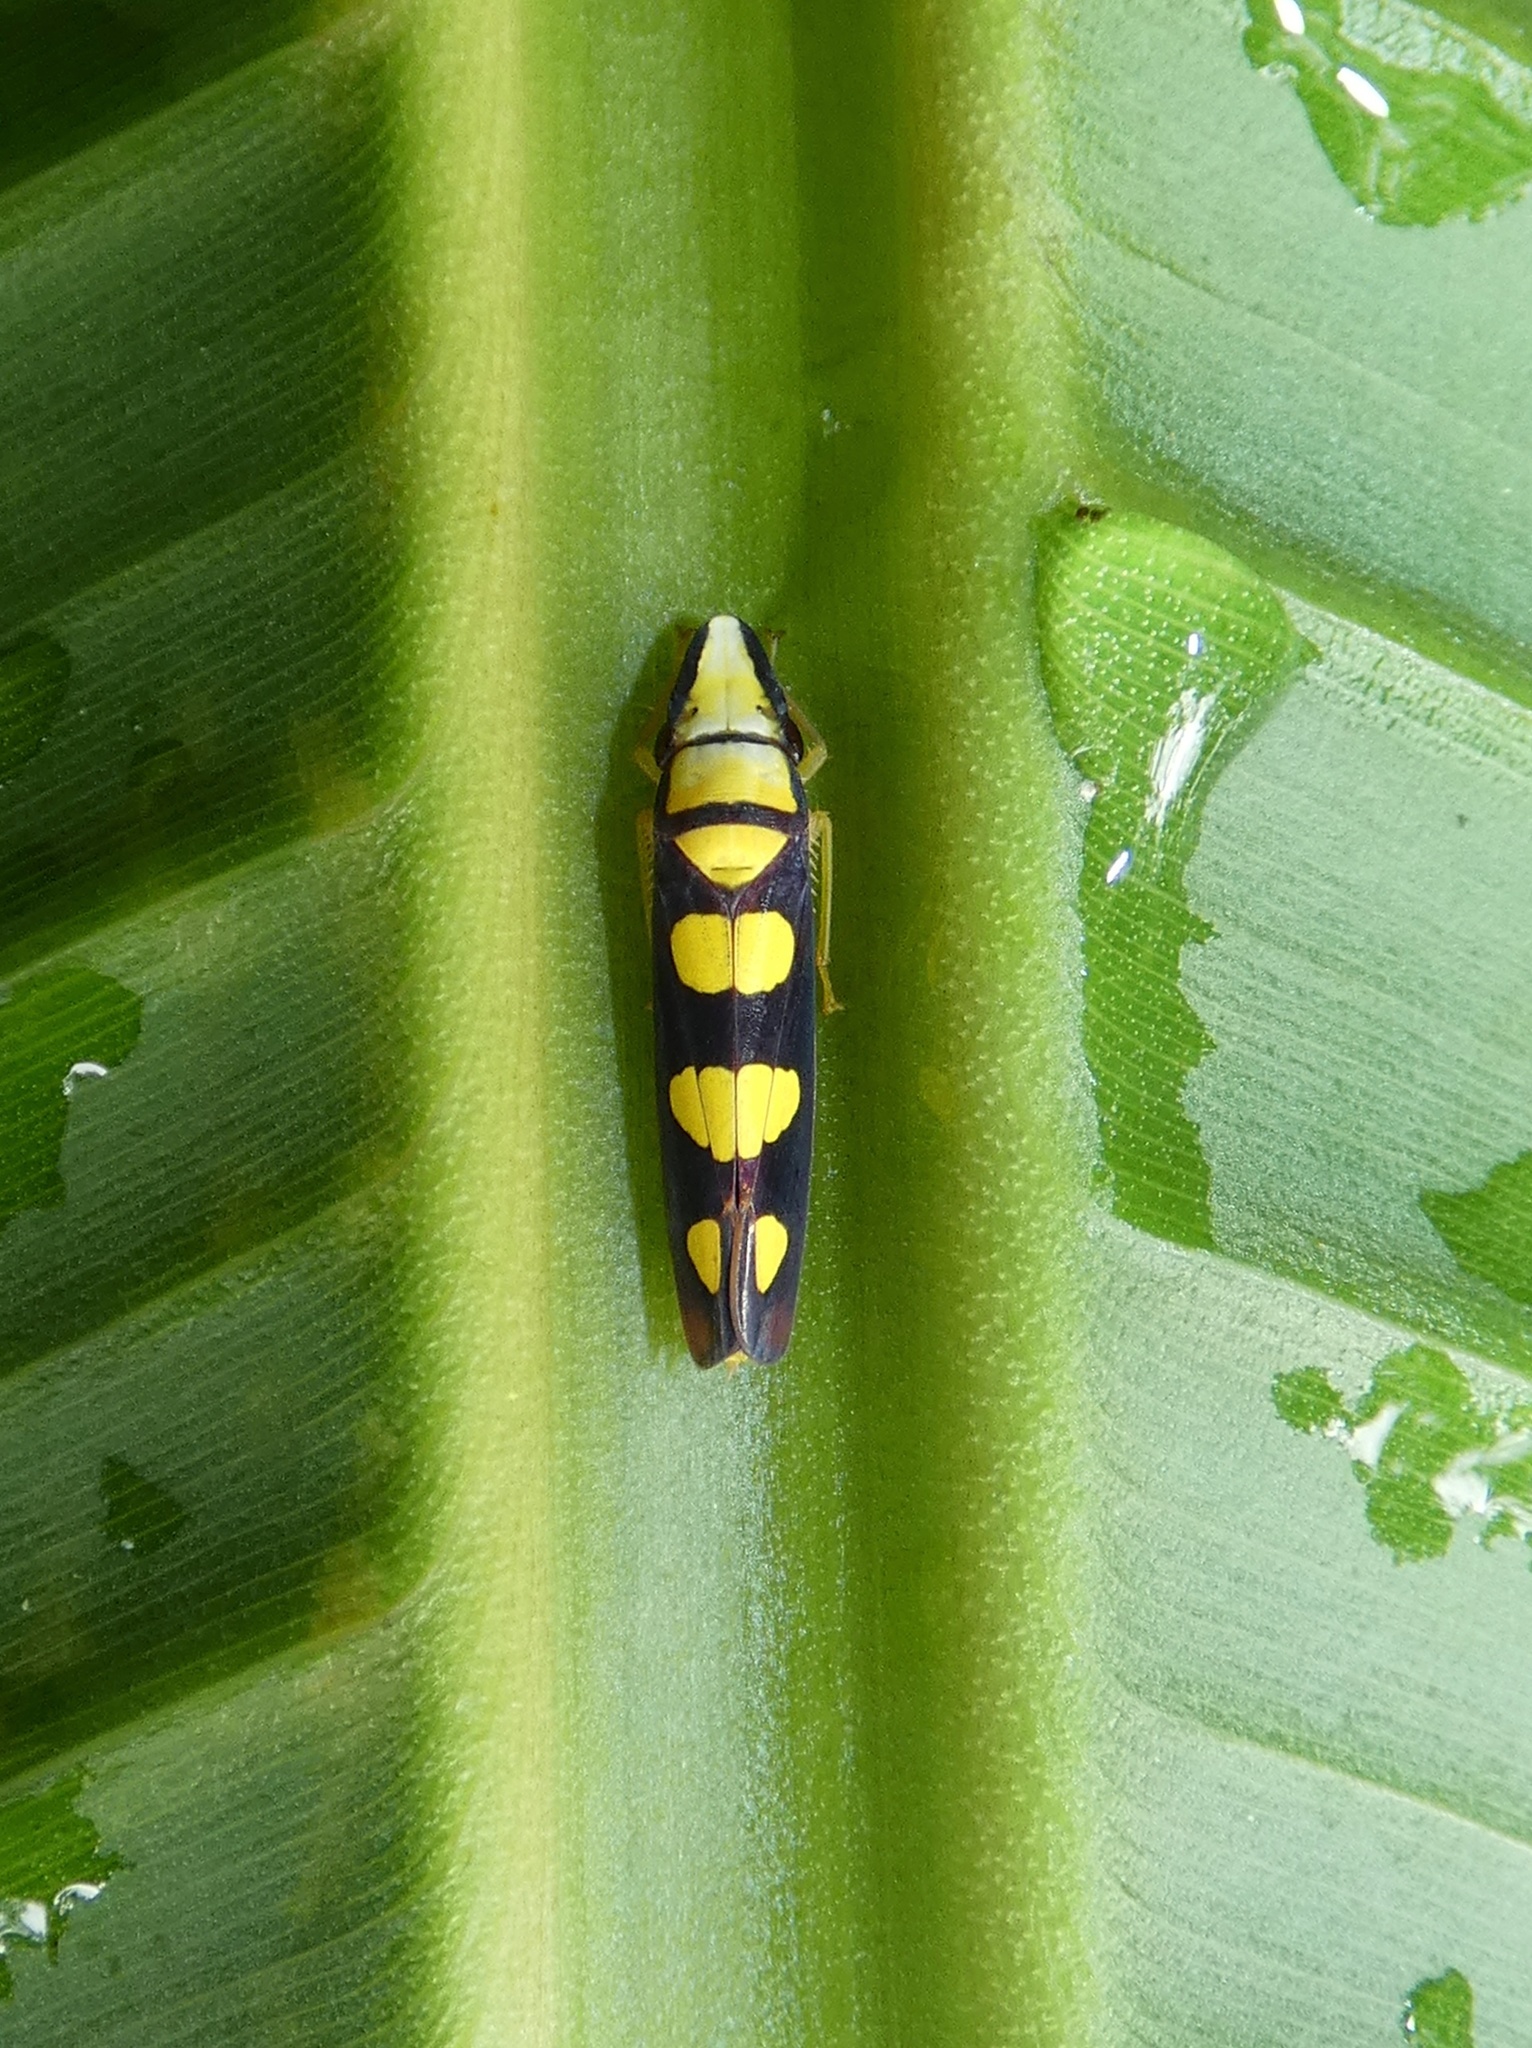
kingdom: Animalia
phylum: Arthropoda
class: Insecta
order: Hemiptera
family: Cicadellidae
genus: Platygonia
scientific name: Platygonia spatulata
